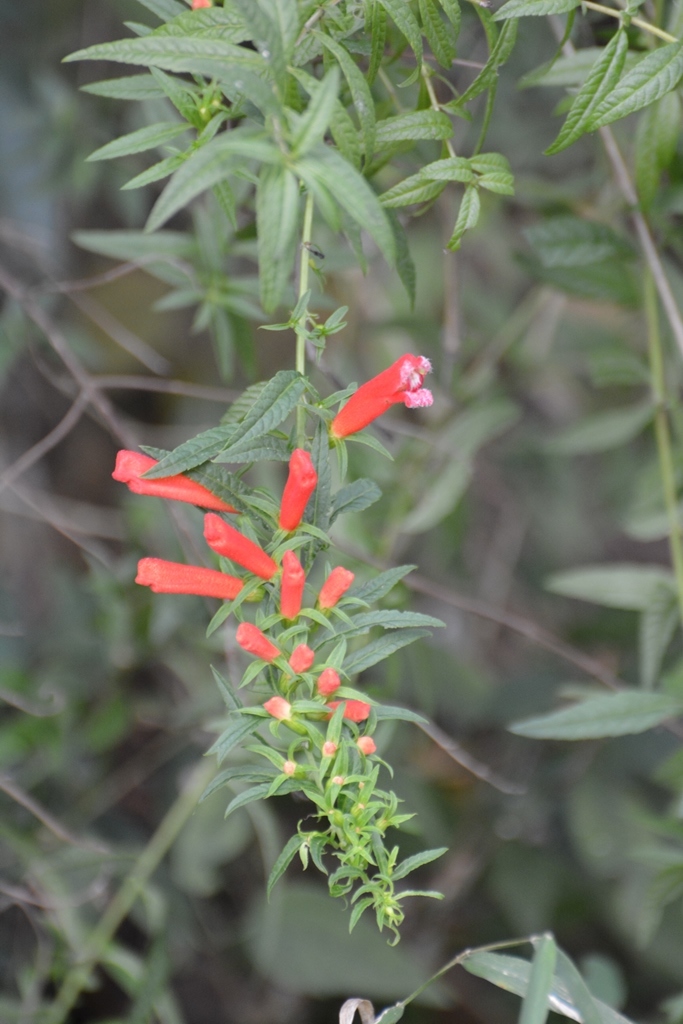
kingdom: Plantae
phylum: Tracheophyta
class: Magnoliopsida
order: Lamiales
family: Orobanchaceae
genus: Lamourouxia
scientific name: Lamourouxia lanceolata
